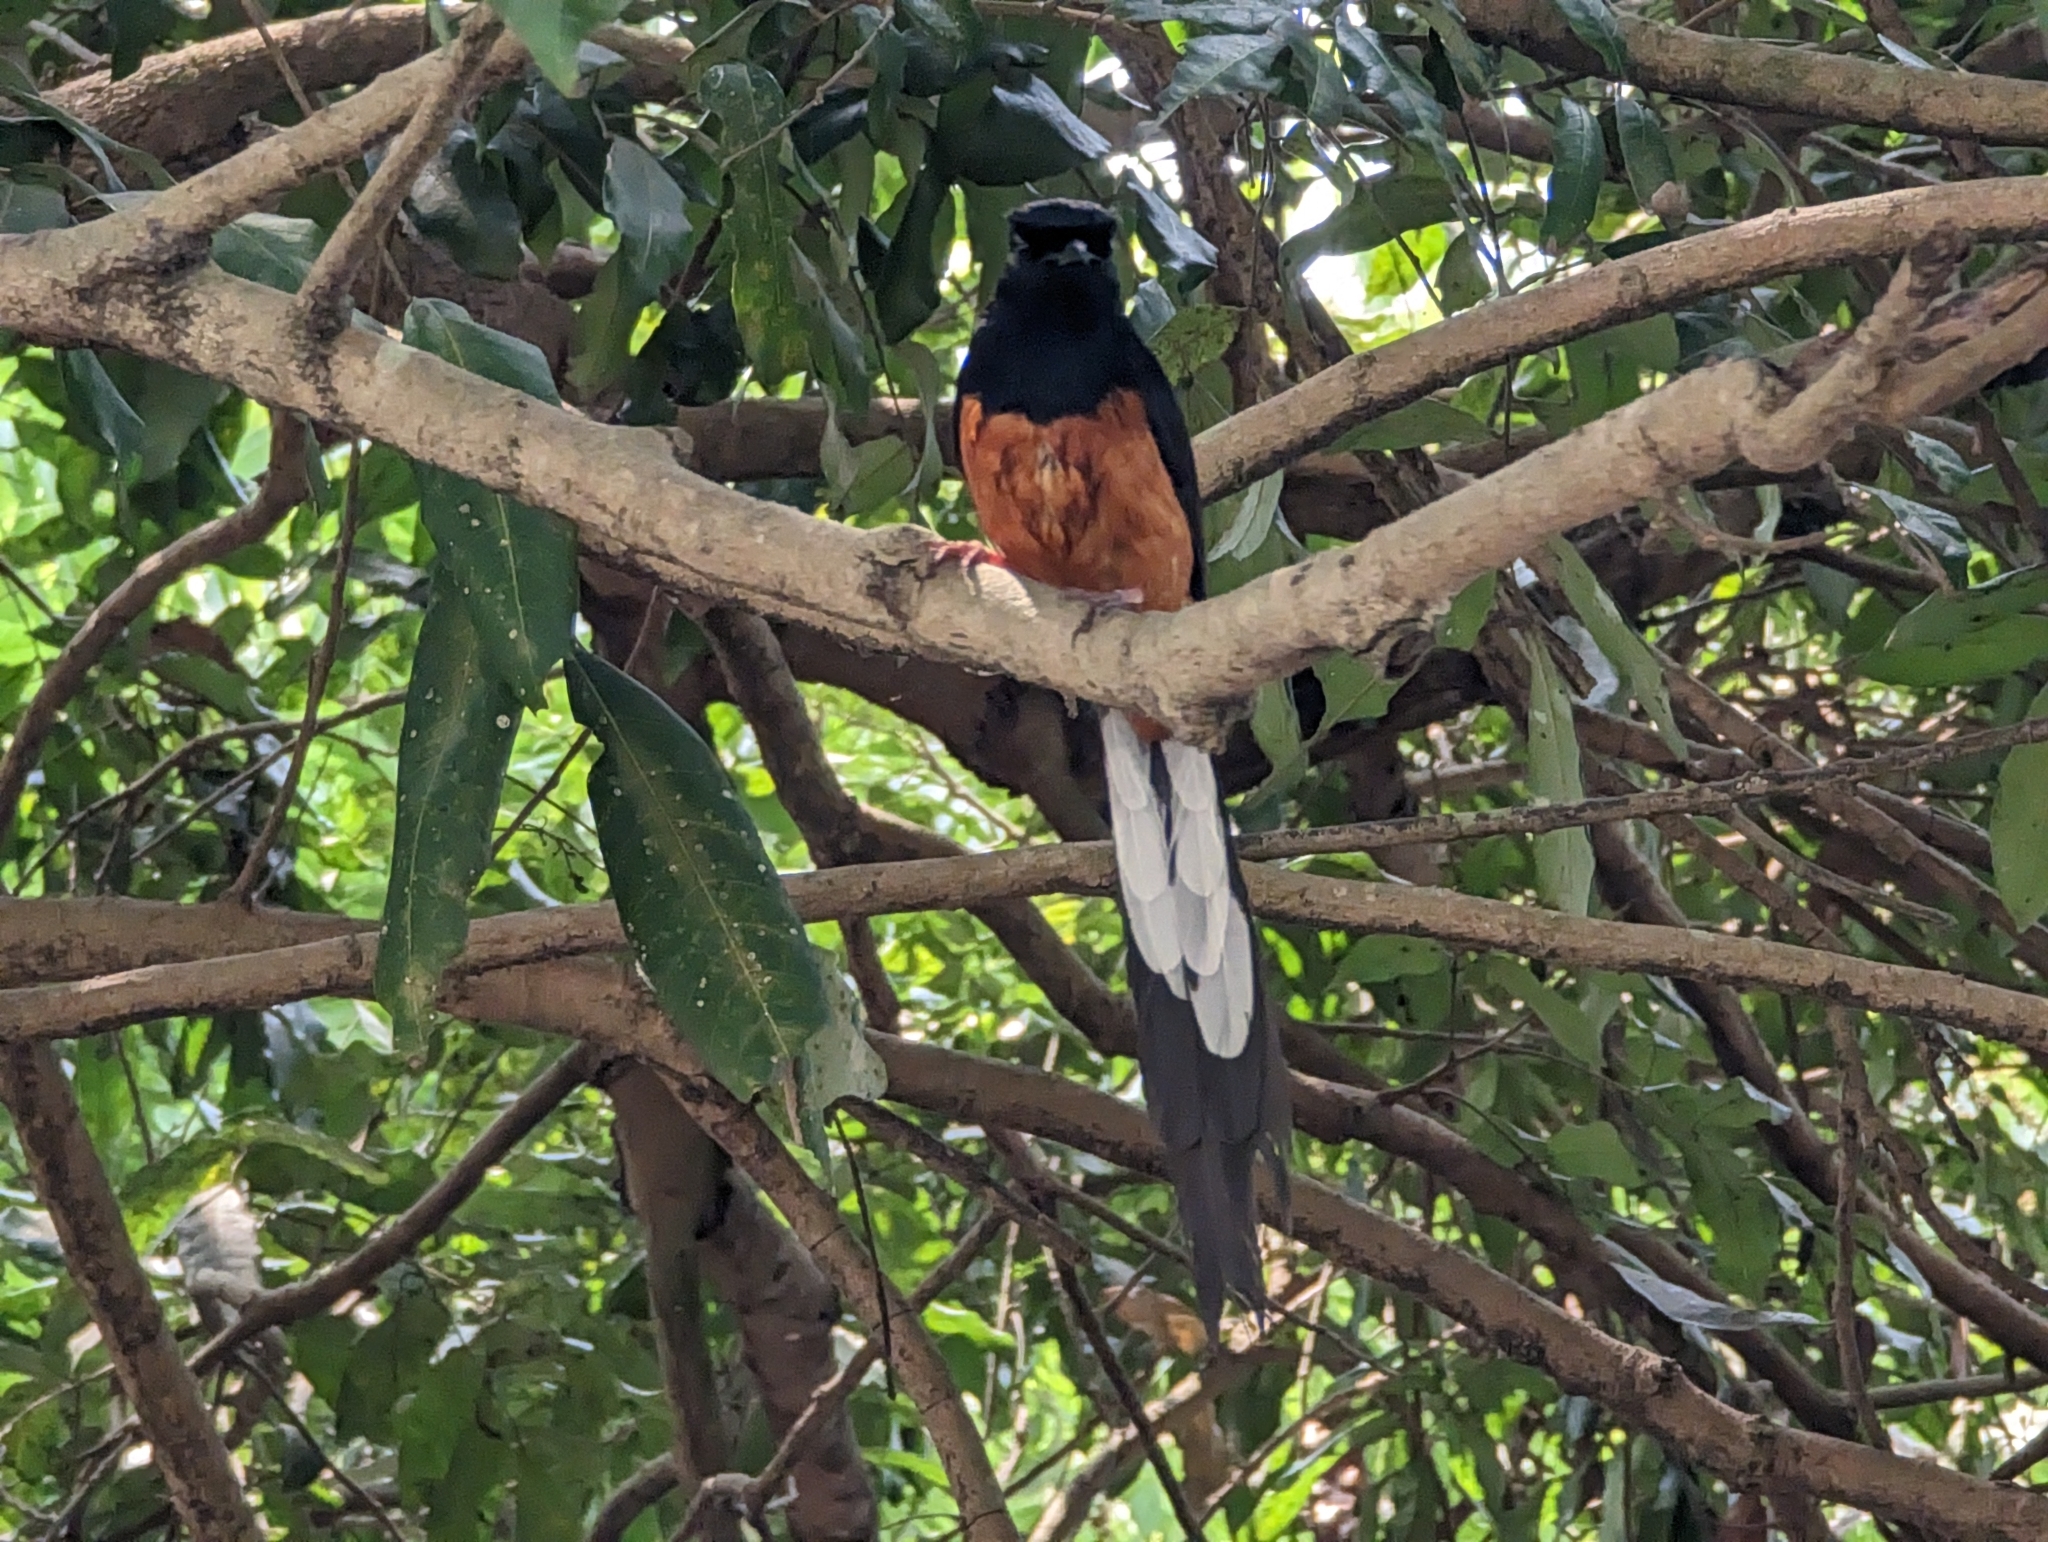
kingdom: Animalia
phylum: Chordata
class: Aves
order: Passeriformes
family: Muscicapidae
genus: Copsychus
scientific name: Copsychus malabaricus
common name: White-rumped shama
